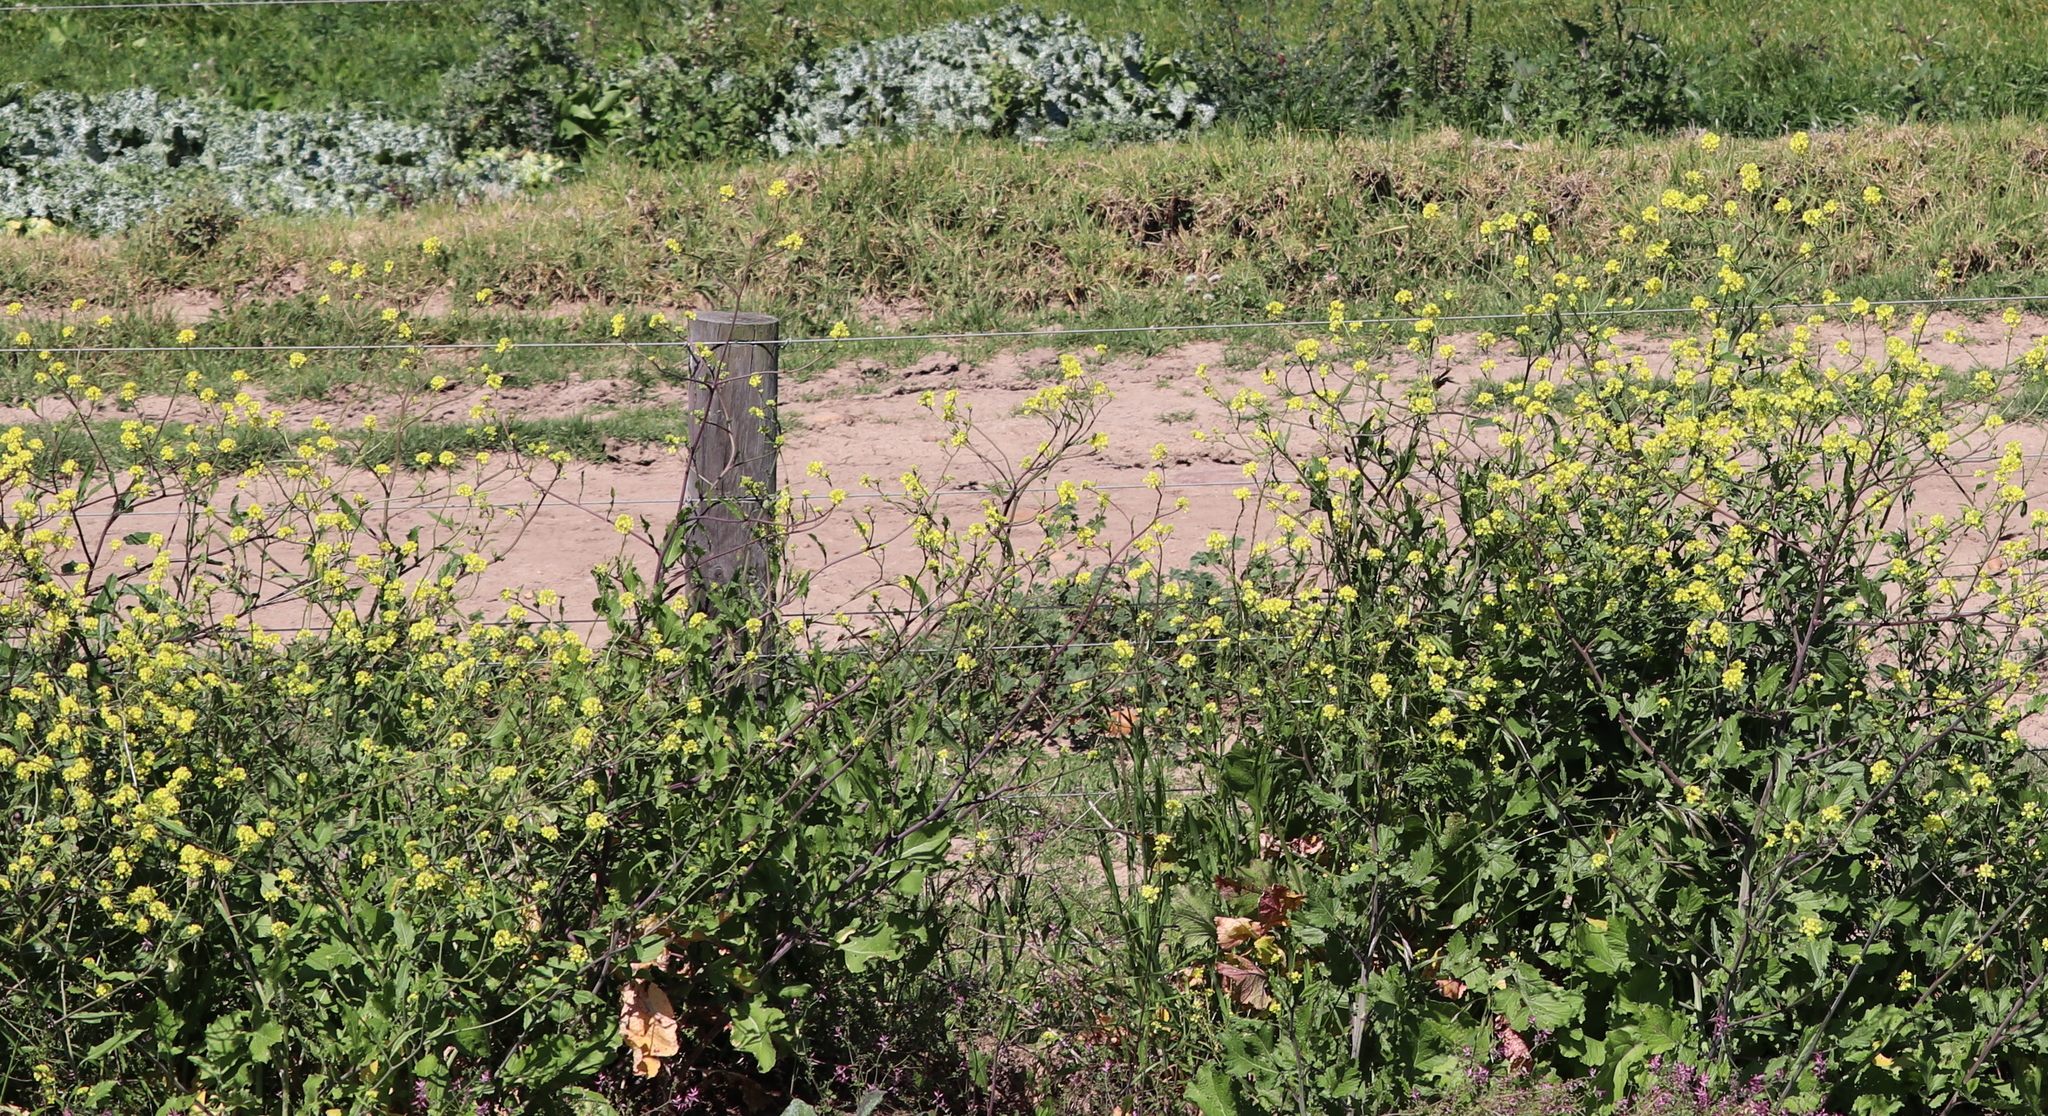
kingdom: Plantae
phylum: Tracheophyta
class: Magnoliopsida
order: Brassicales
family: Brassicaceae
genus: Rapistrum
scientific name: Rapistrum rugosum
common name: Annual bastardcabbage
